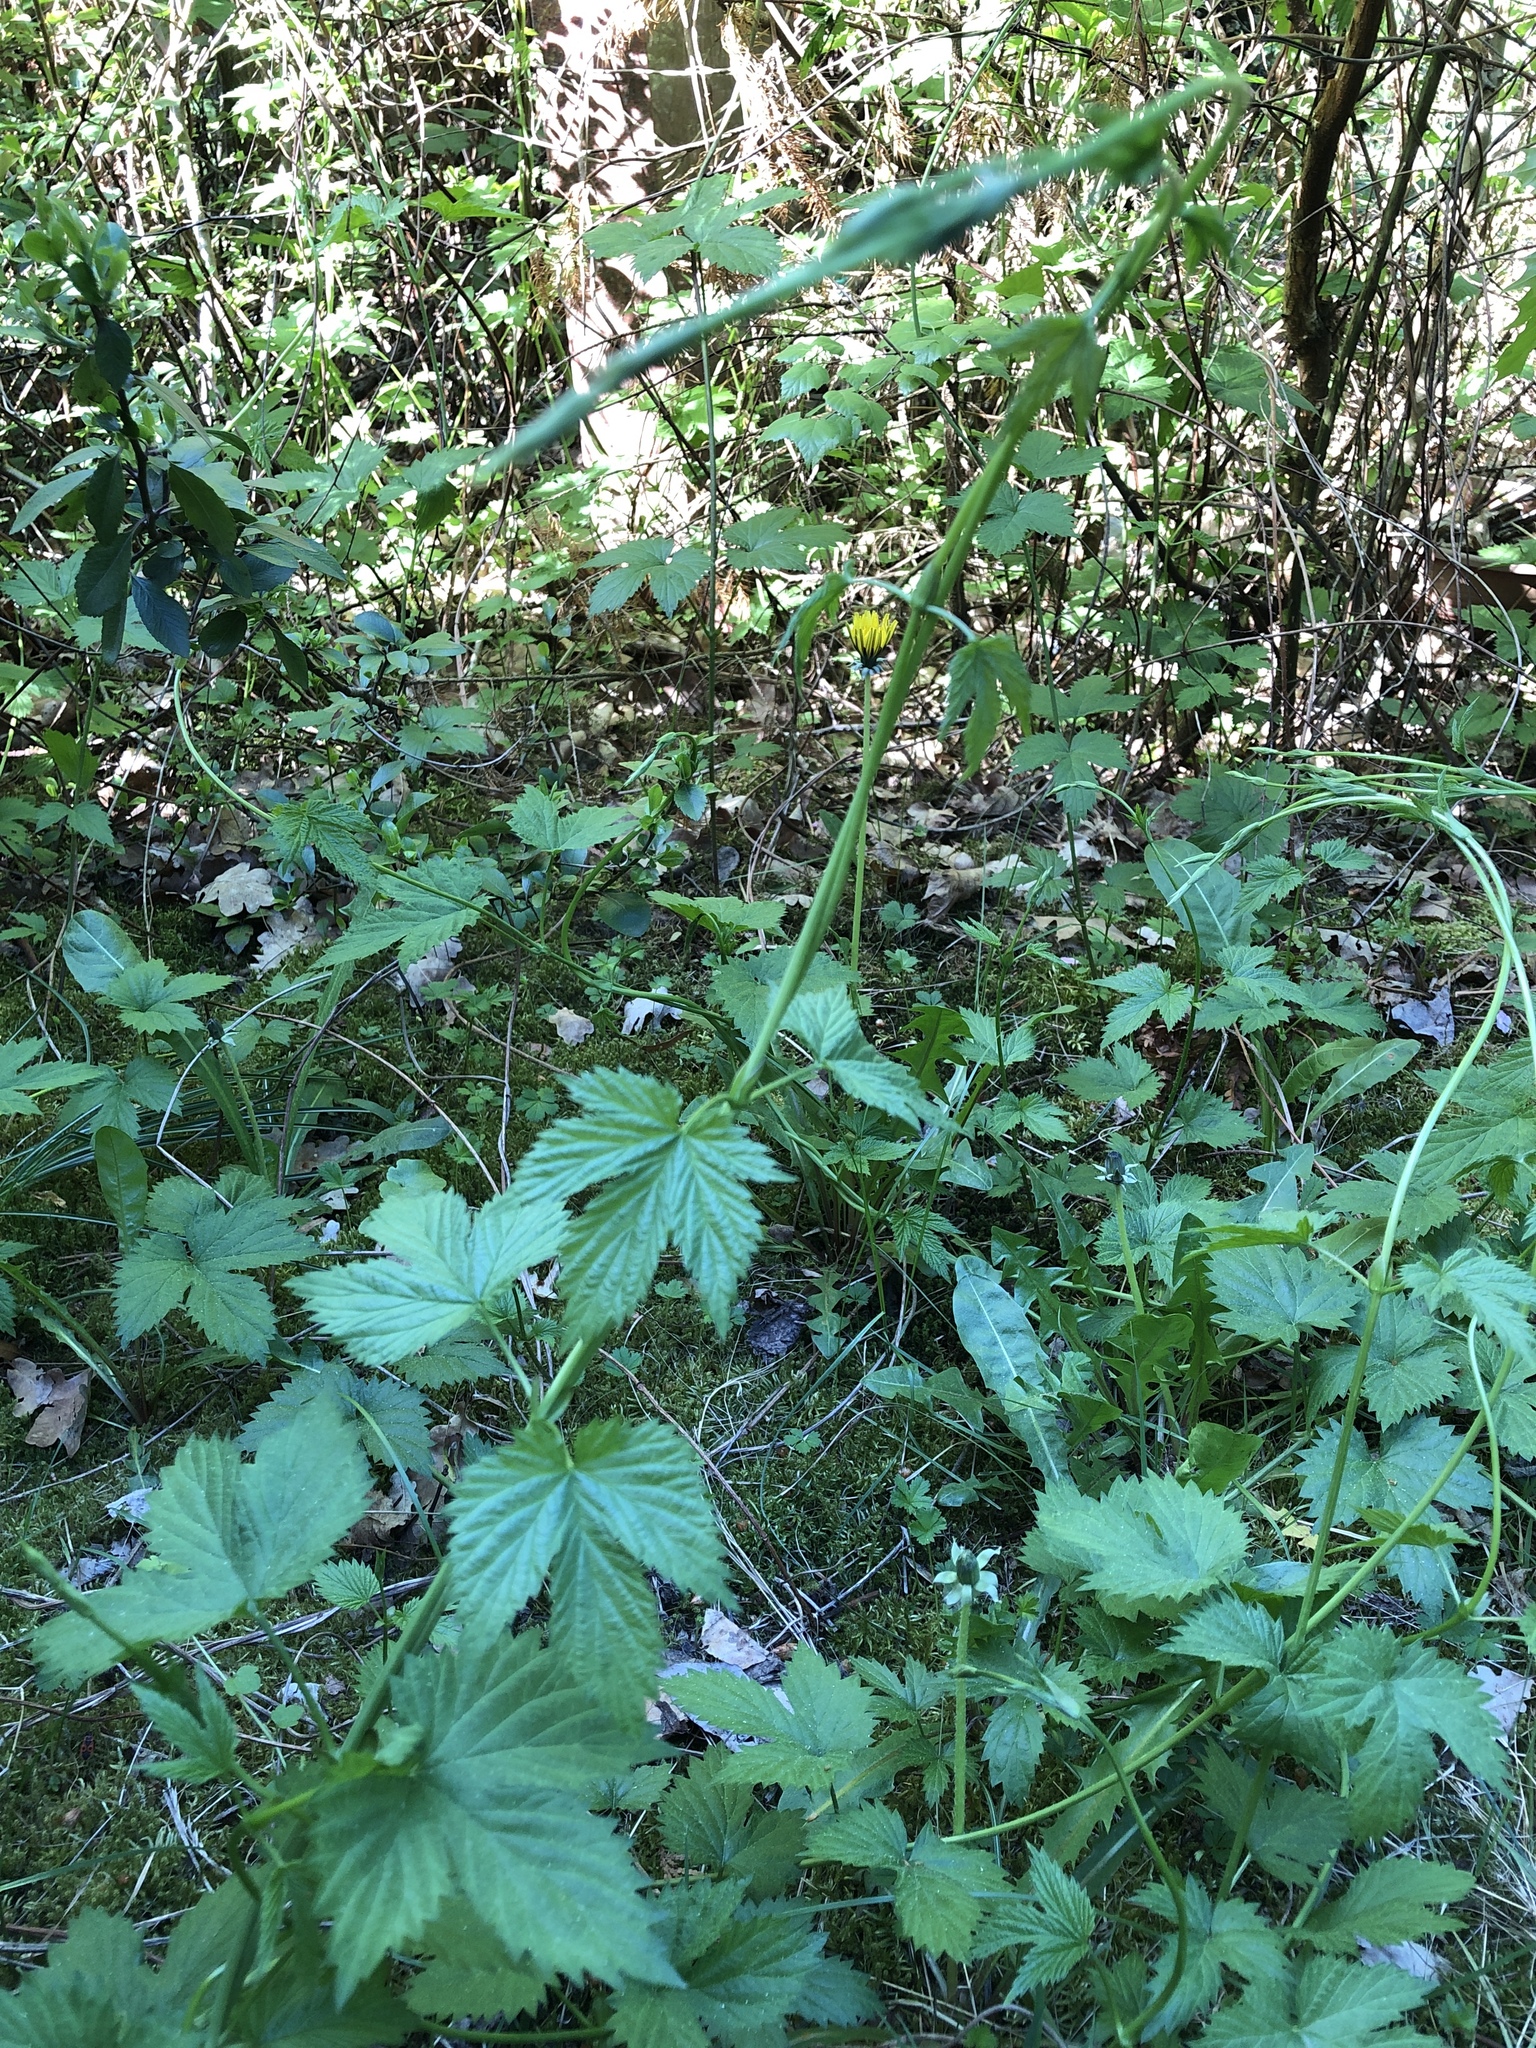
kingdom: Plantae
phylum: Tracheophyta
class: Magnoliopsida
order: Rosales
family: Cannabaceae
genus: Humulus
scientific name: Humulus lupulus
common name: Hop
